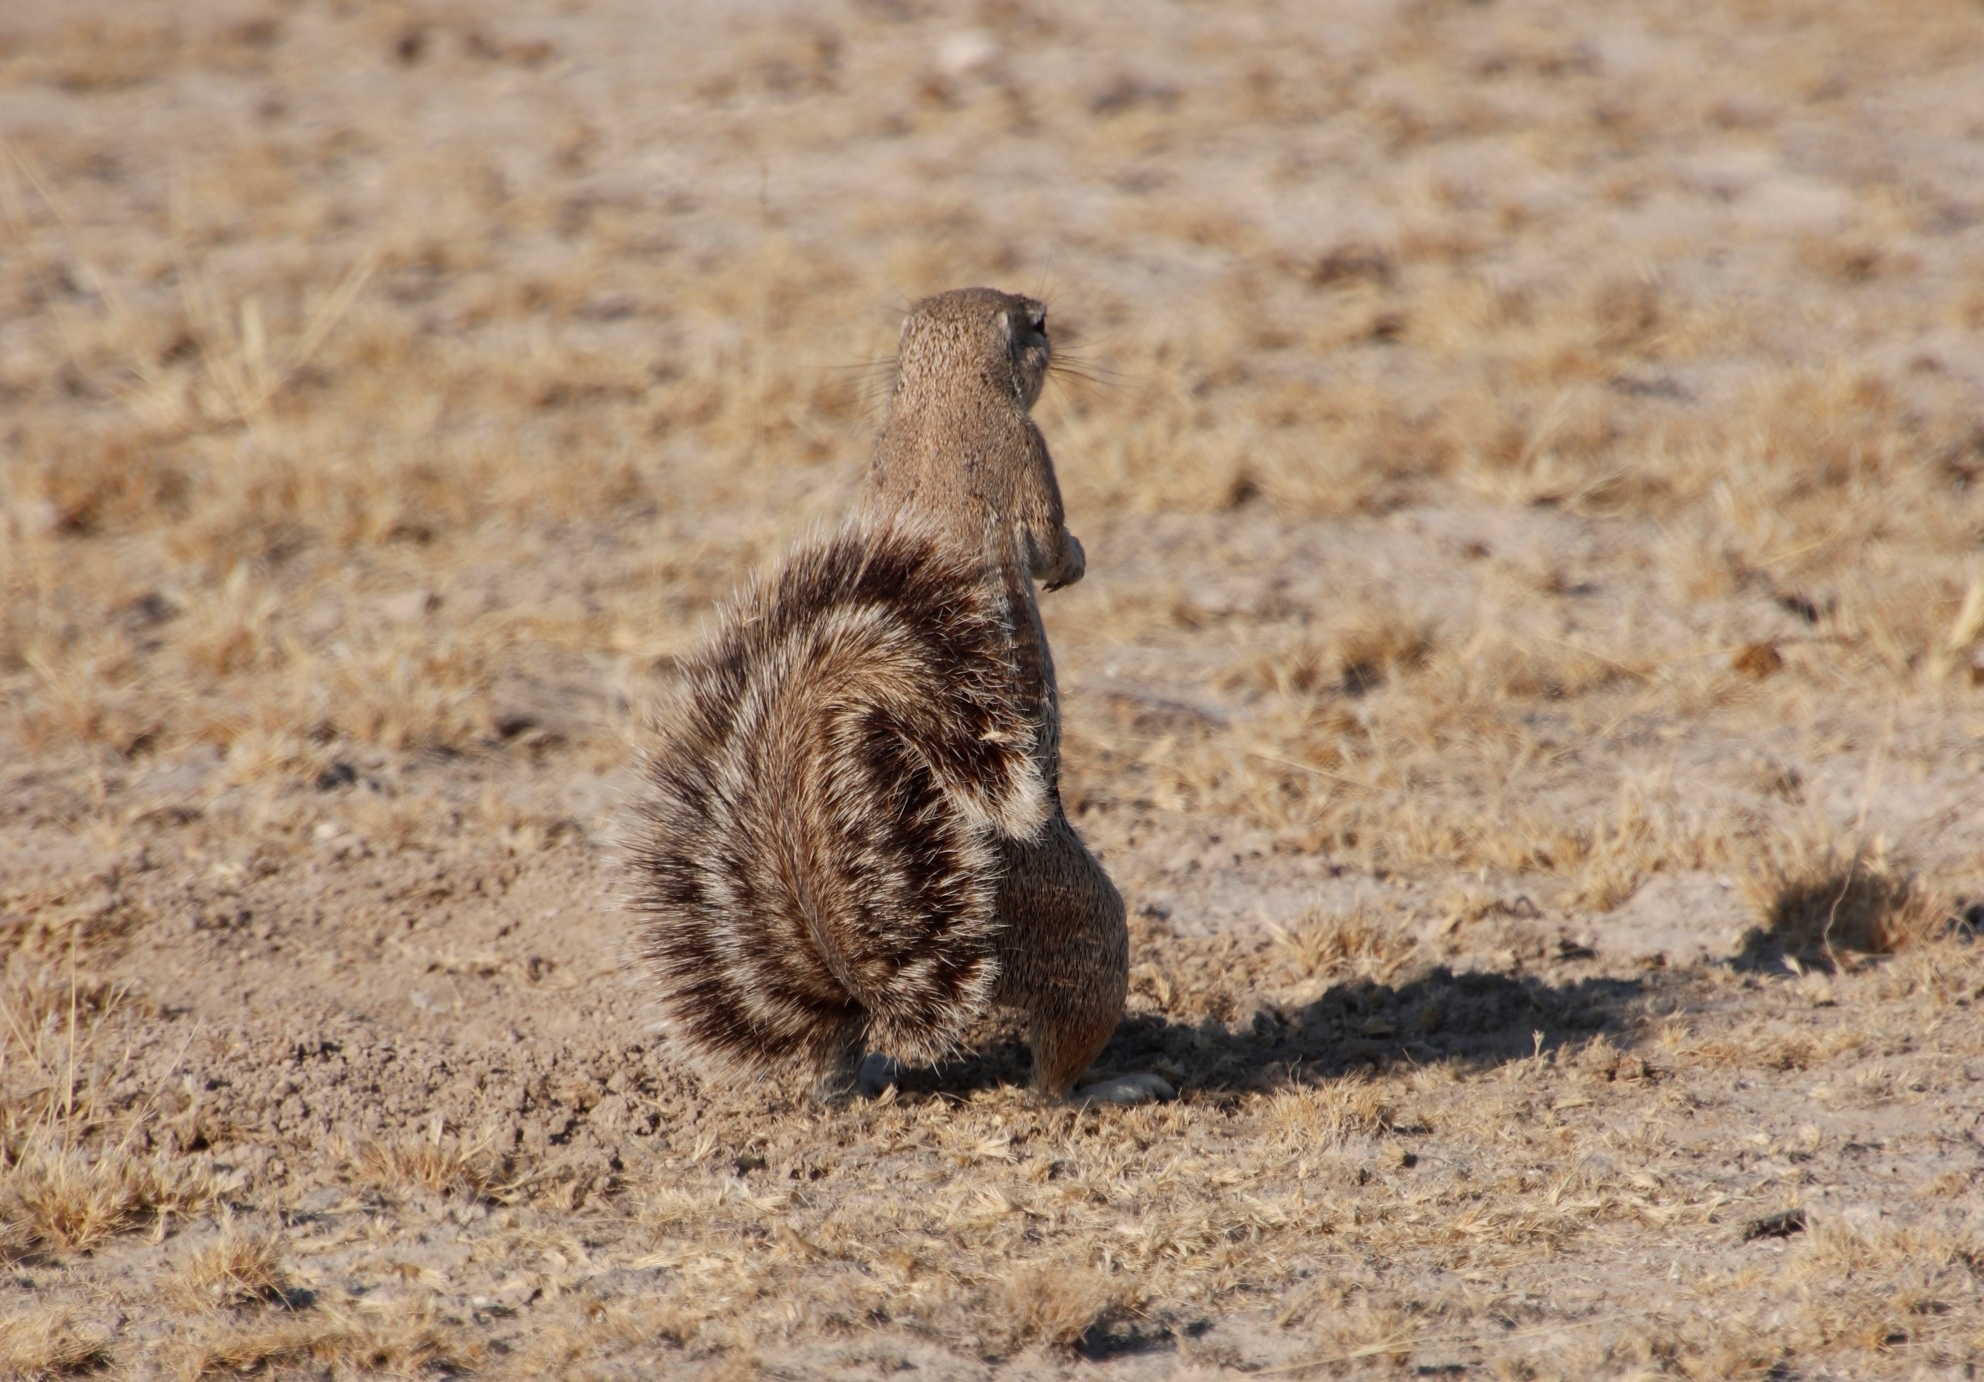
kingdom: Animalia
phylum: Chordata
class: Mammalia
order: Rodentia
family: Sciuridae
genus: Xerus
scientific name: Xerus inauris
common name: South african ground squirrel
